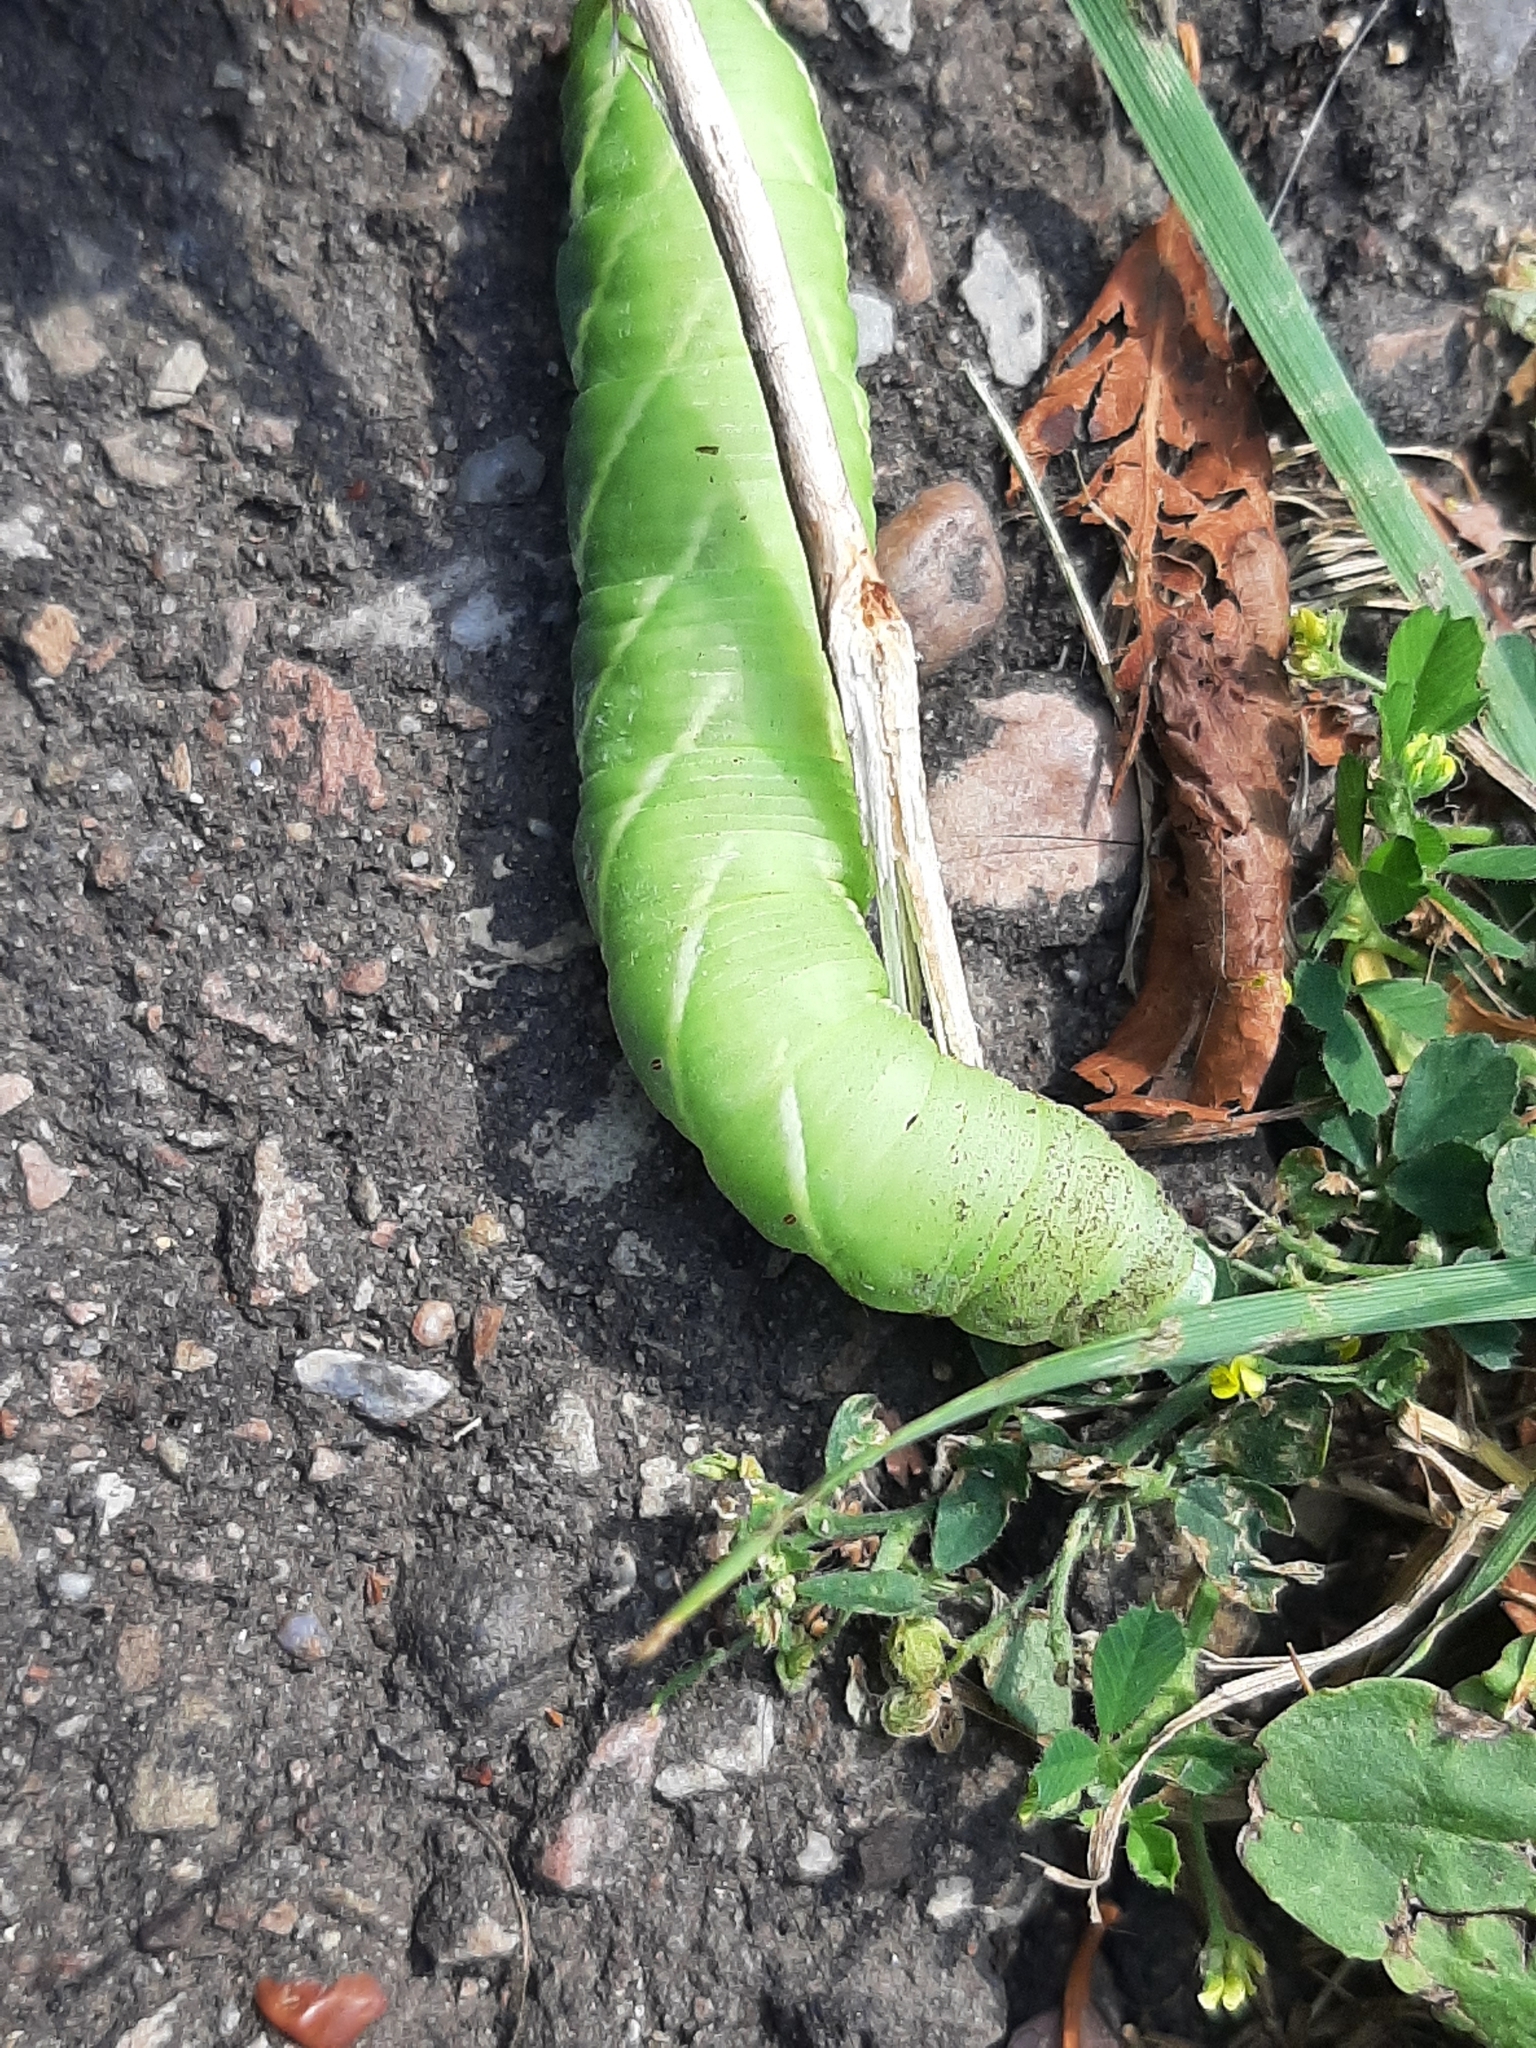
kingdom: Animalia
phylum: Arthropoda
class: Insecta
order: Lepidoptera
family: Sphingidae
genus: Ceratomia
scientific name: Ceratomia undulosa
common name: Waved sphinx
